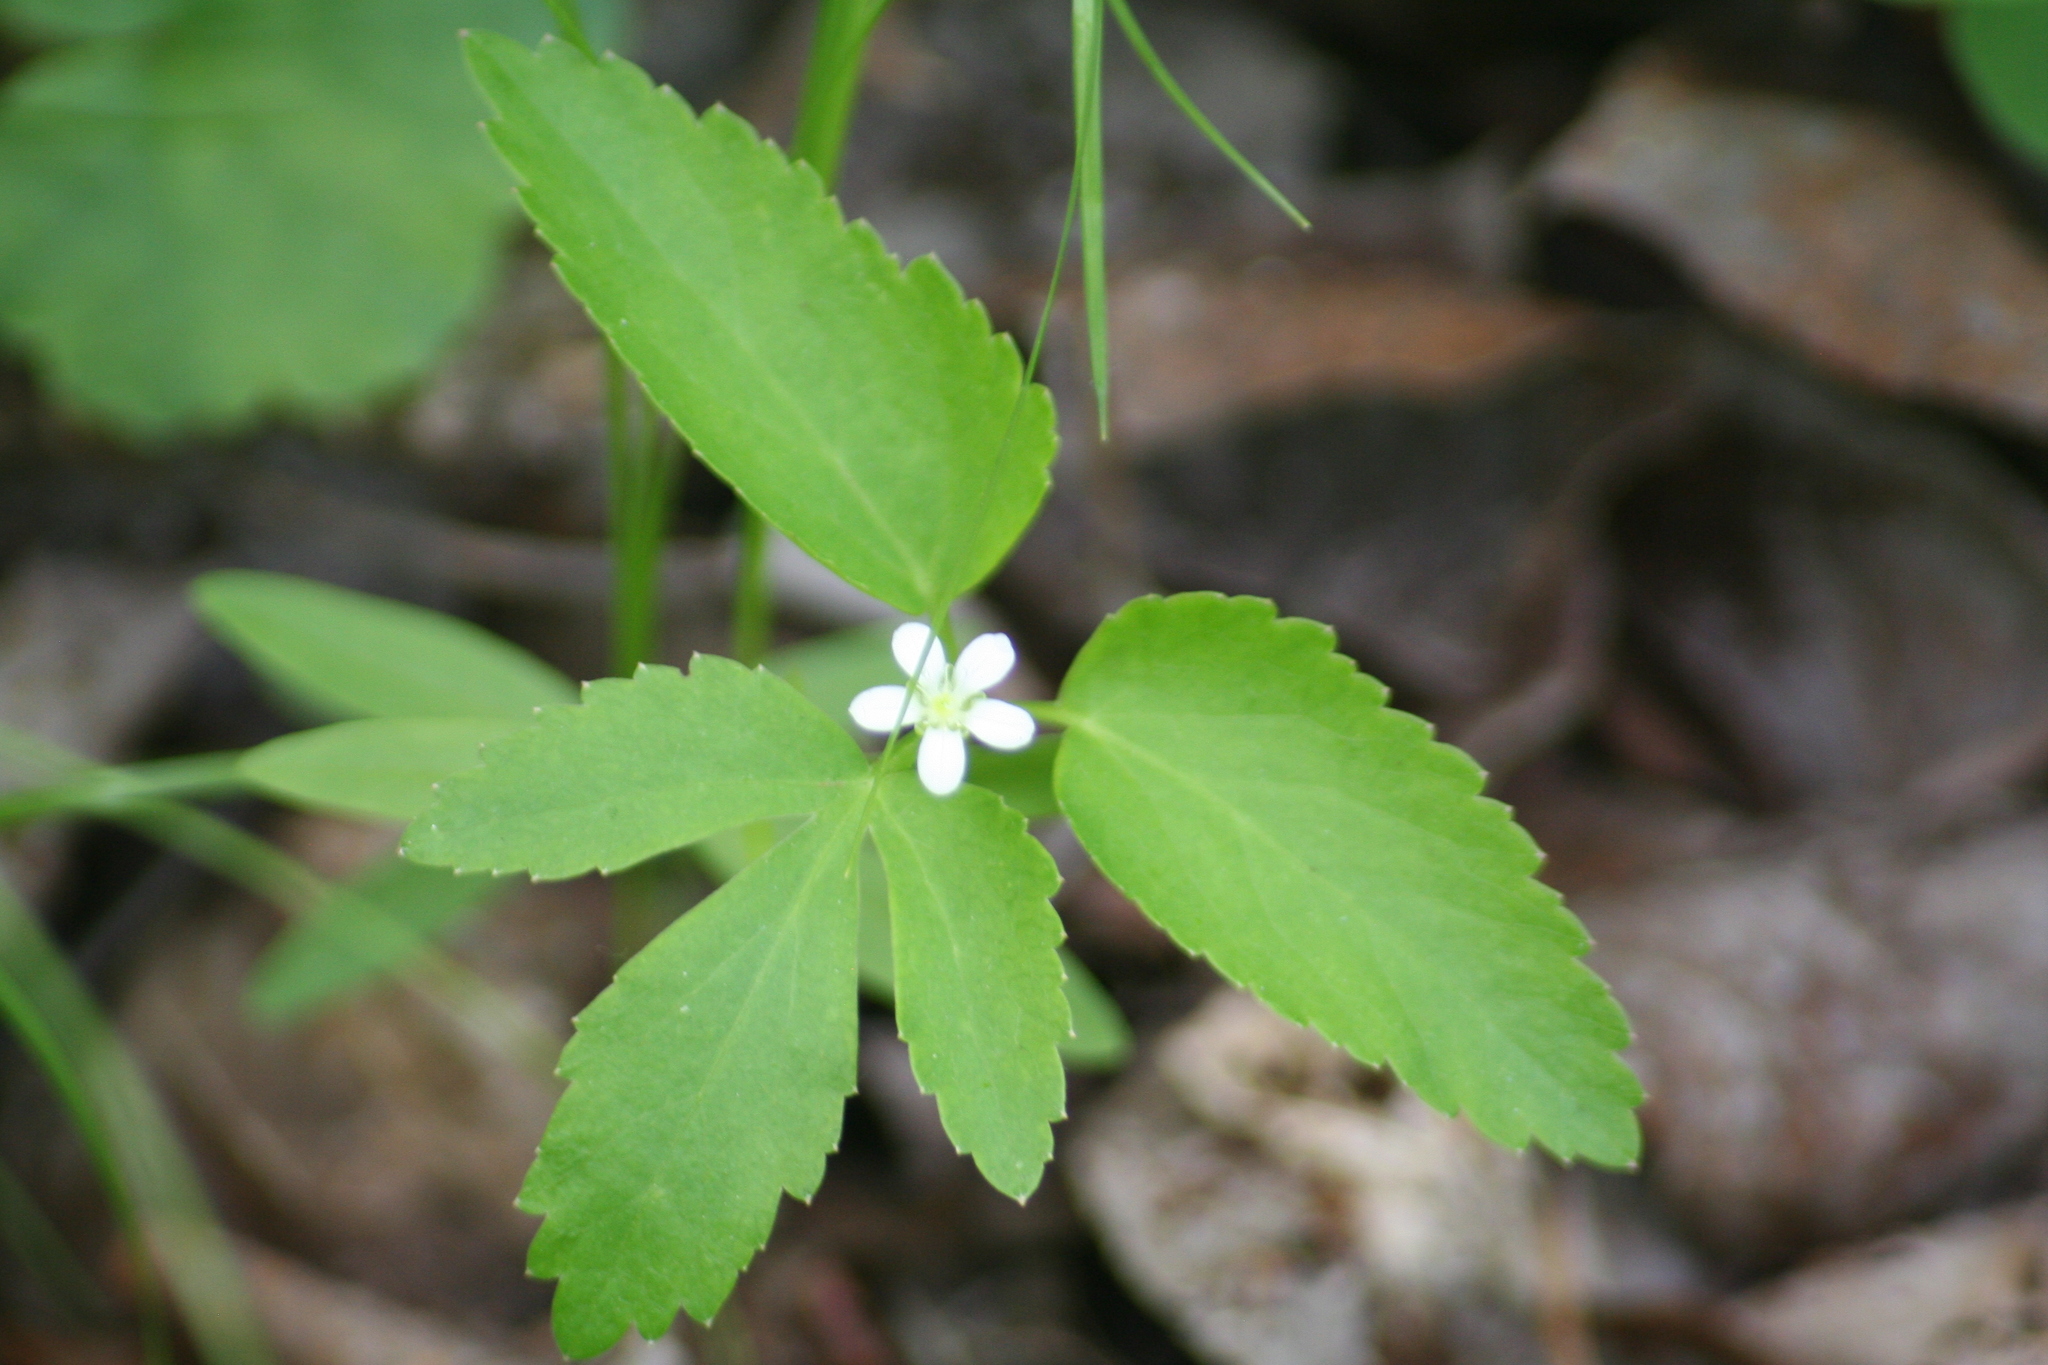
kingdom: Plantae
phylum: Tracheophyta
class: Magnoliopsida
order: Caryophyllales
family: Caryophyllaceae
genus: Moehringia
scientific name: Moehringia lateriflora
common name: Blunt-leaved sandwort
